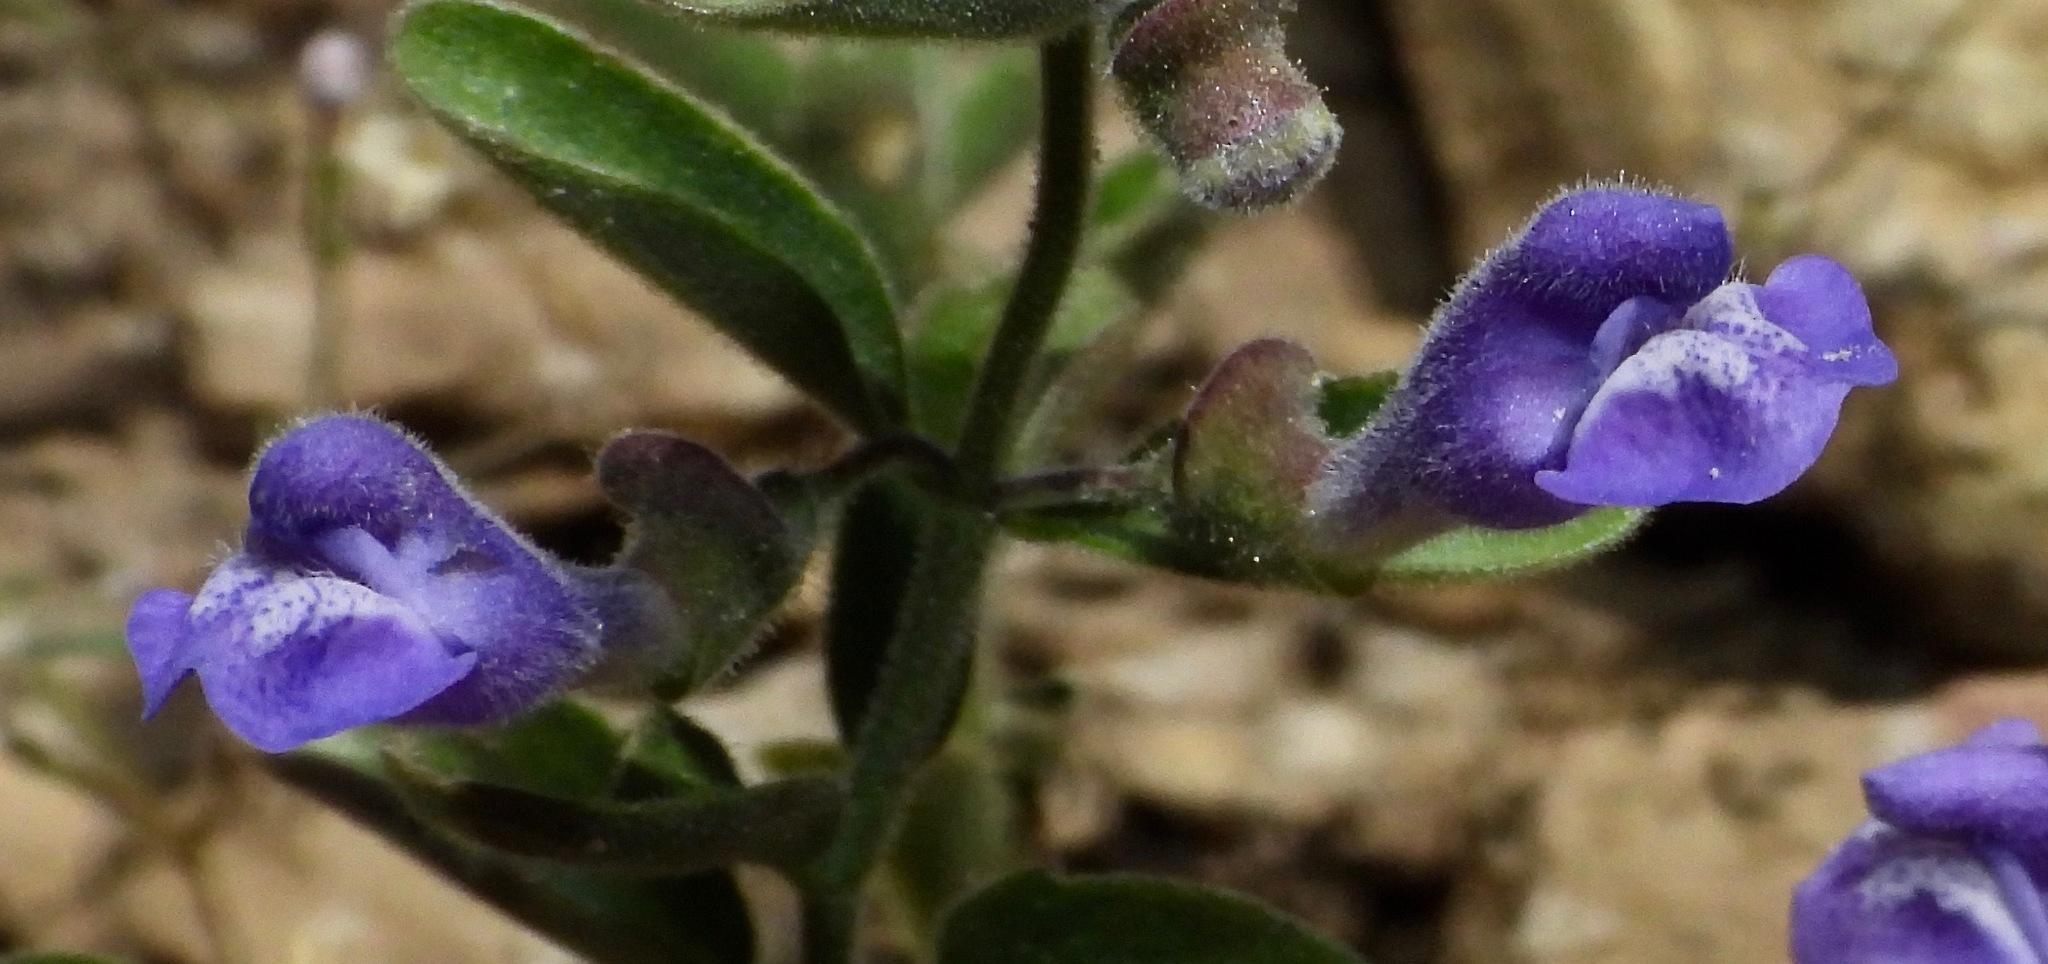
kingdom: Plantae
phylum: Tracheophyta
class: Magnoliopsida
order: Lamiales
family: Lamiaceae
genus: Scutellaria
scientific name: Scutellaria antirrhinoides
